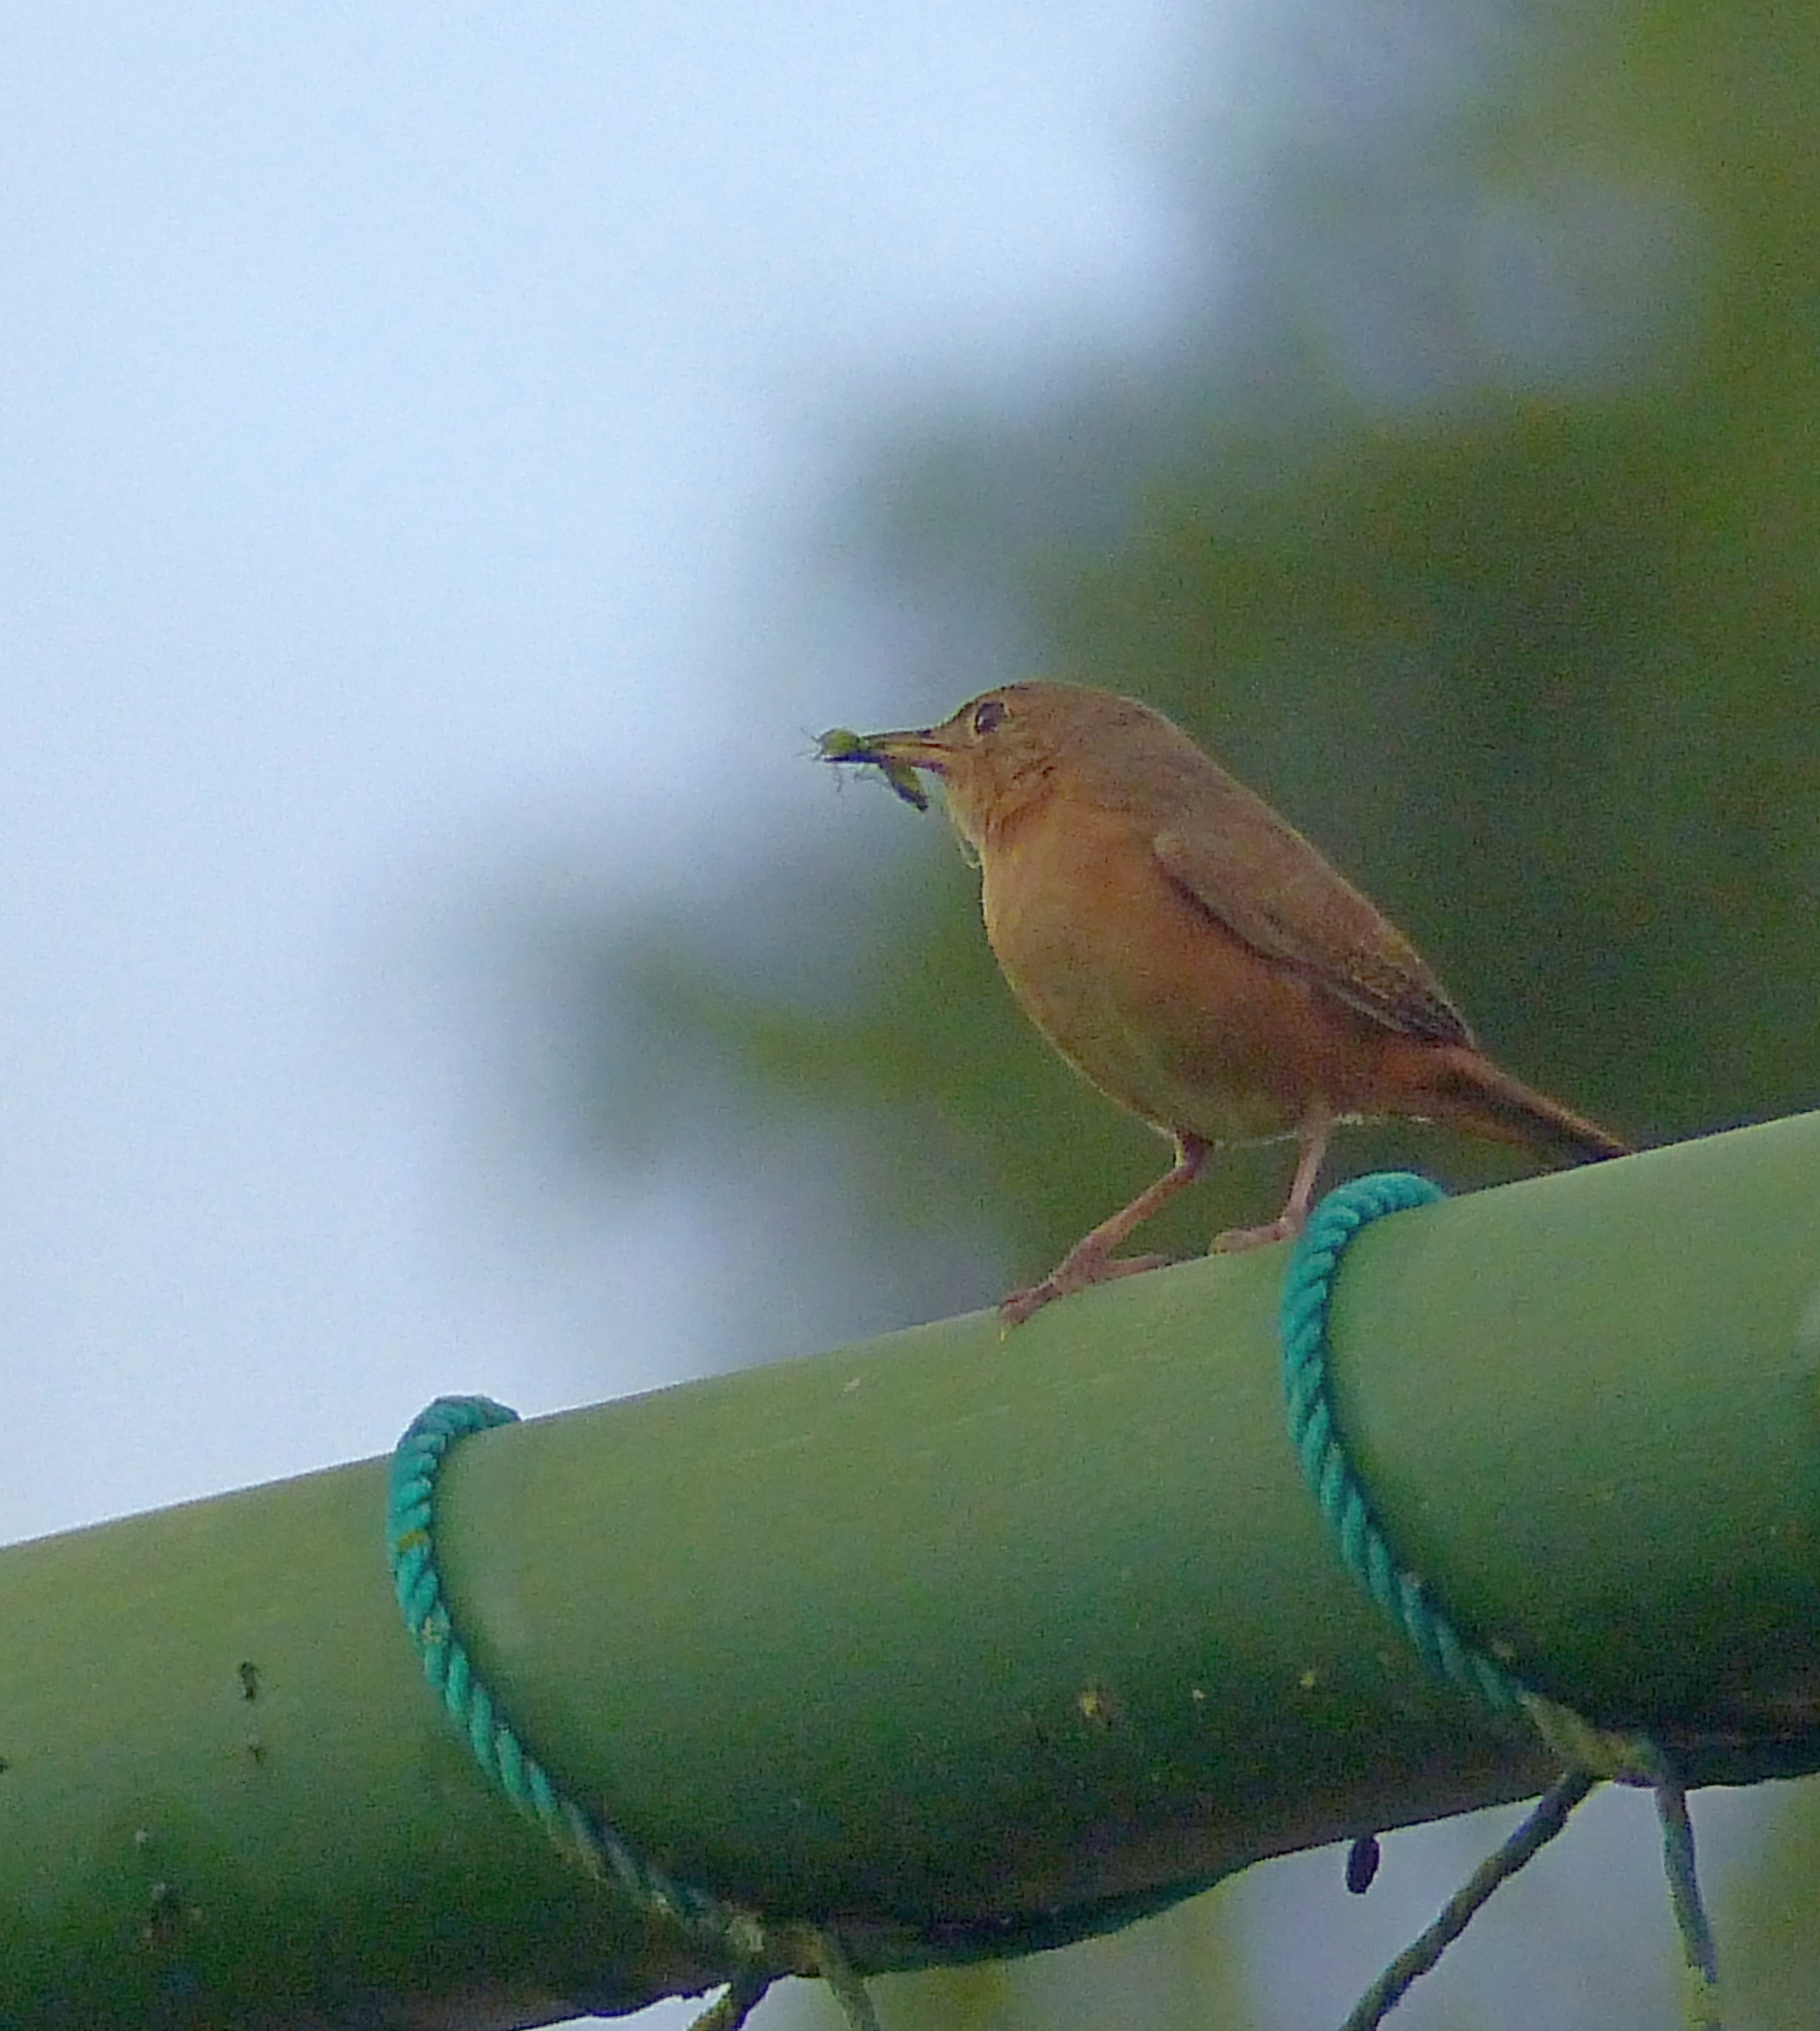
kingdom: Animalia
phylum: Chordata
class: Aves
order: Passeriformes
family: Troglodytidae
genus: Troglodytes
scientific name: Troglodytes aedon
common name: House wren
